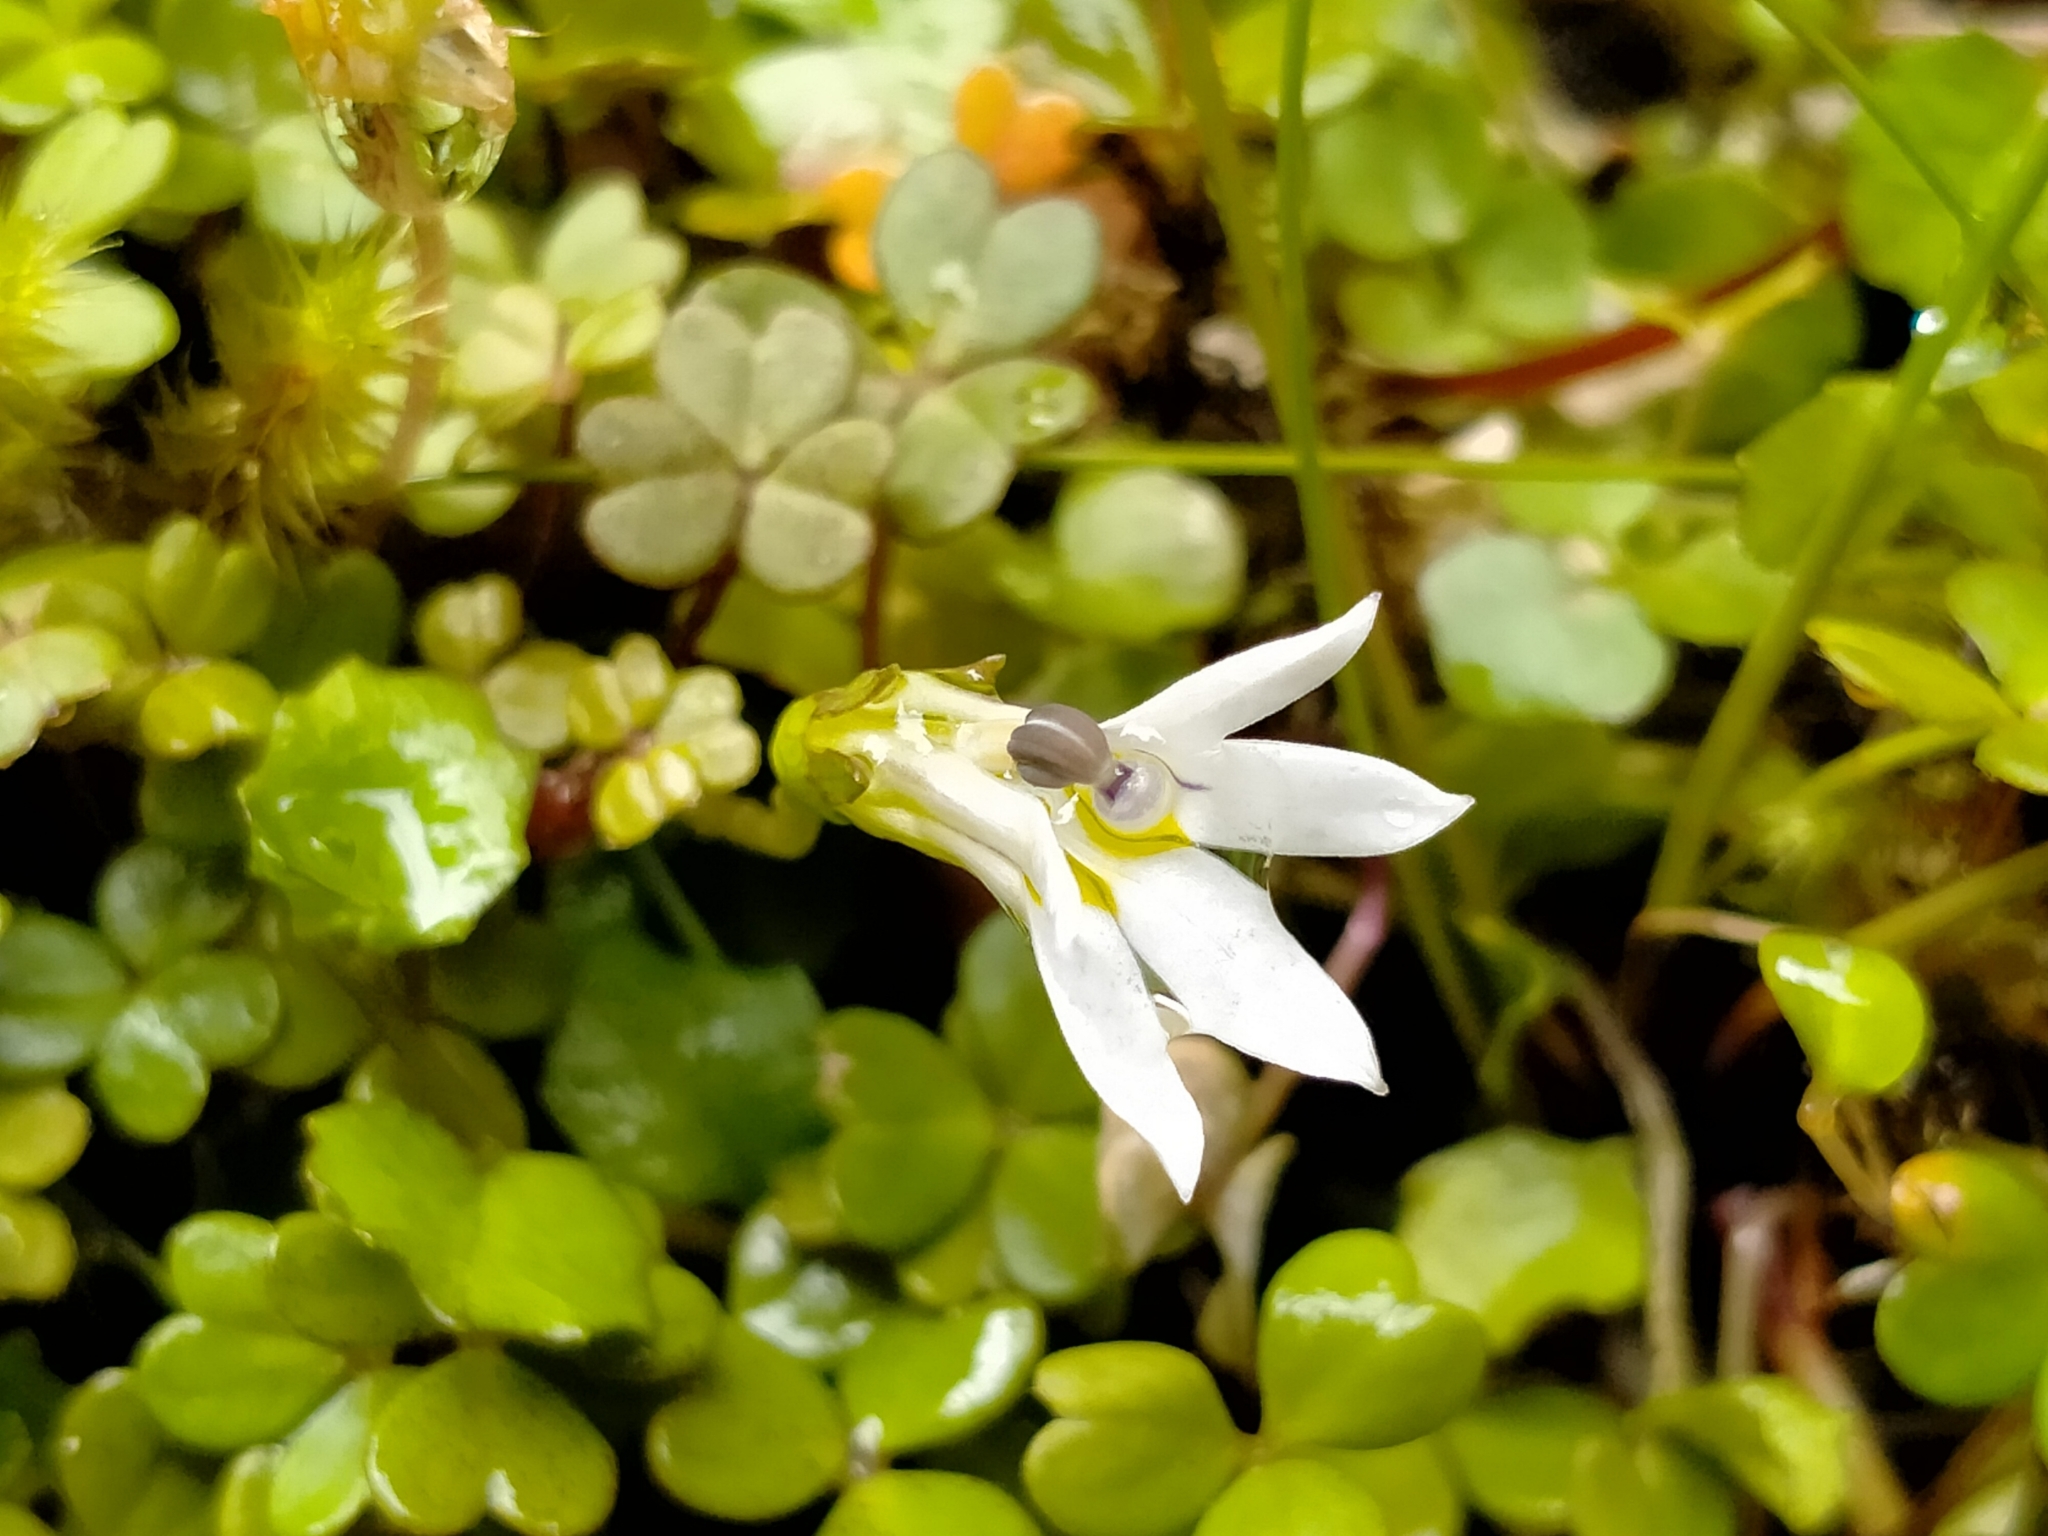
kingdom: Plantae
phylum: Tracheophyta
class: Magnoliopsida
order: Asterales
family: Campanulaceae
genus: Lobelia
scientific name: Lobelia angulata
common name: Lawn lobelia
